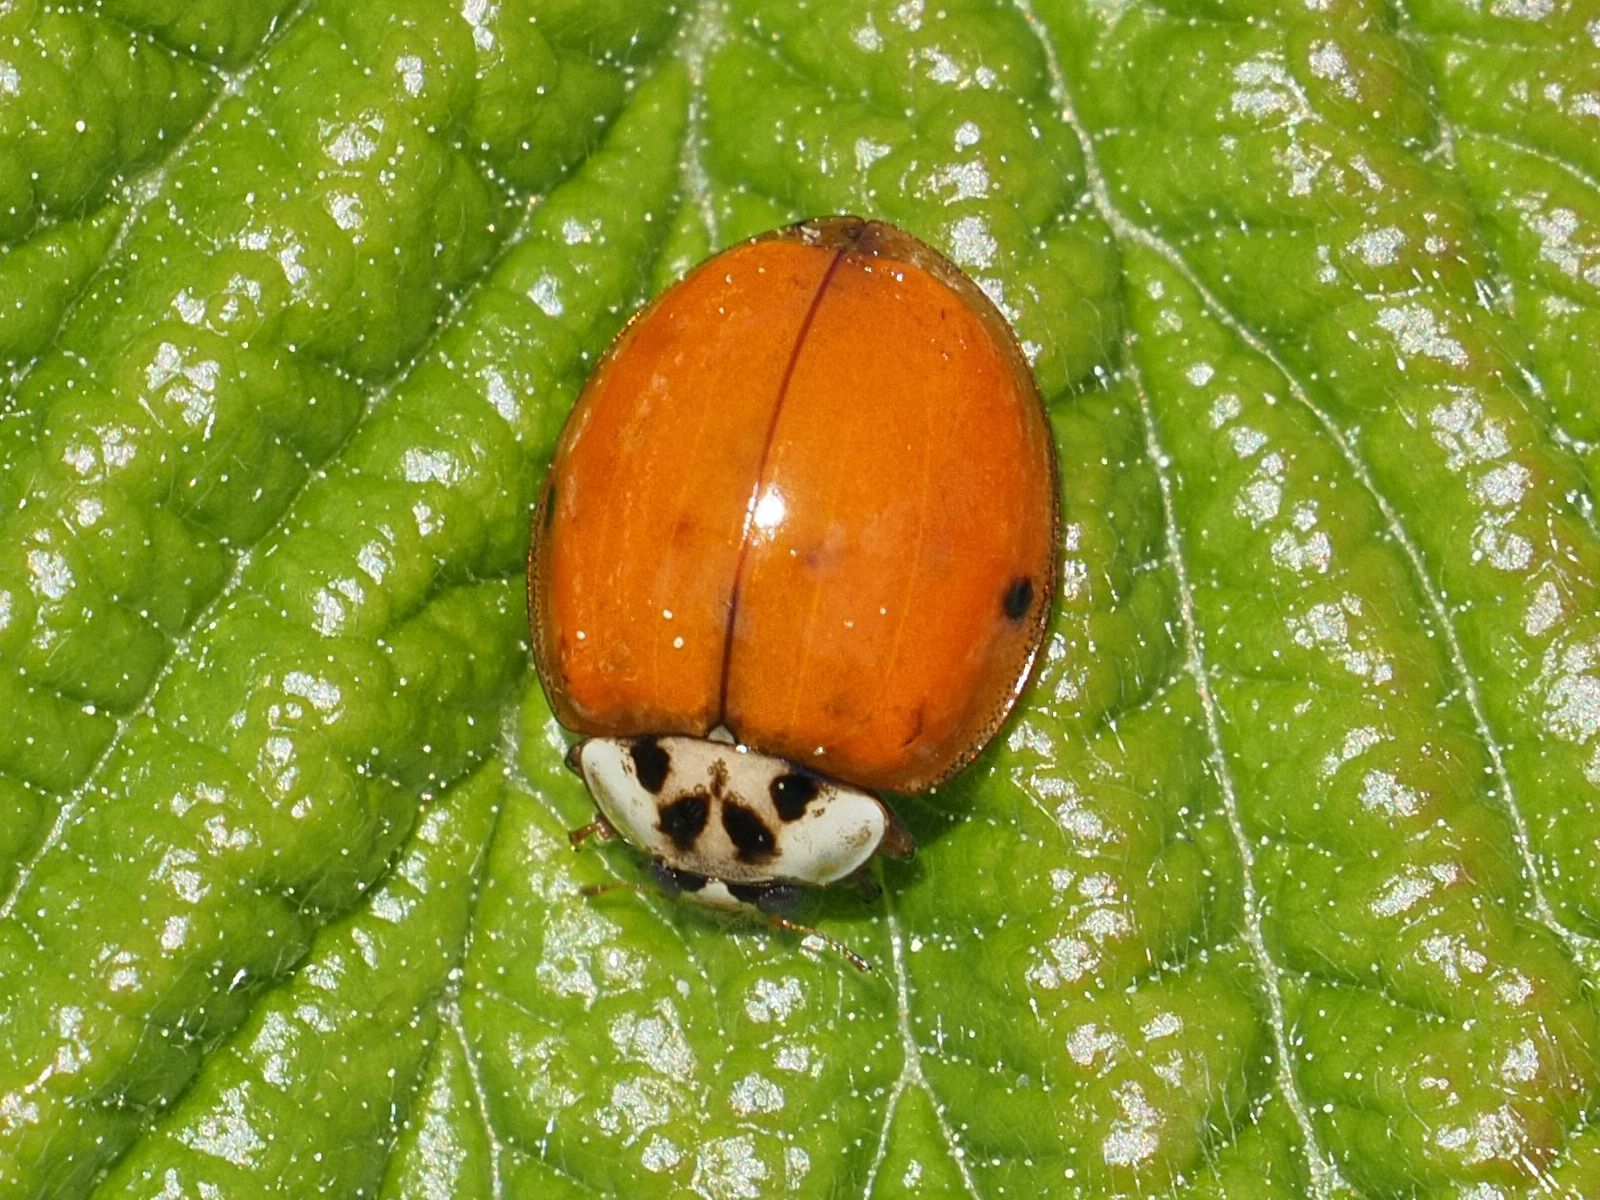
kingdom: Animalia
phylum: Arthropoda
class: Insecta
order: Coleoptera
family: Coccinellidae
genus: Harmonia
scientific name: Harmonia axyridis
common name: Harlequin ladybird
